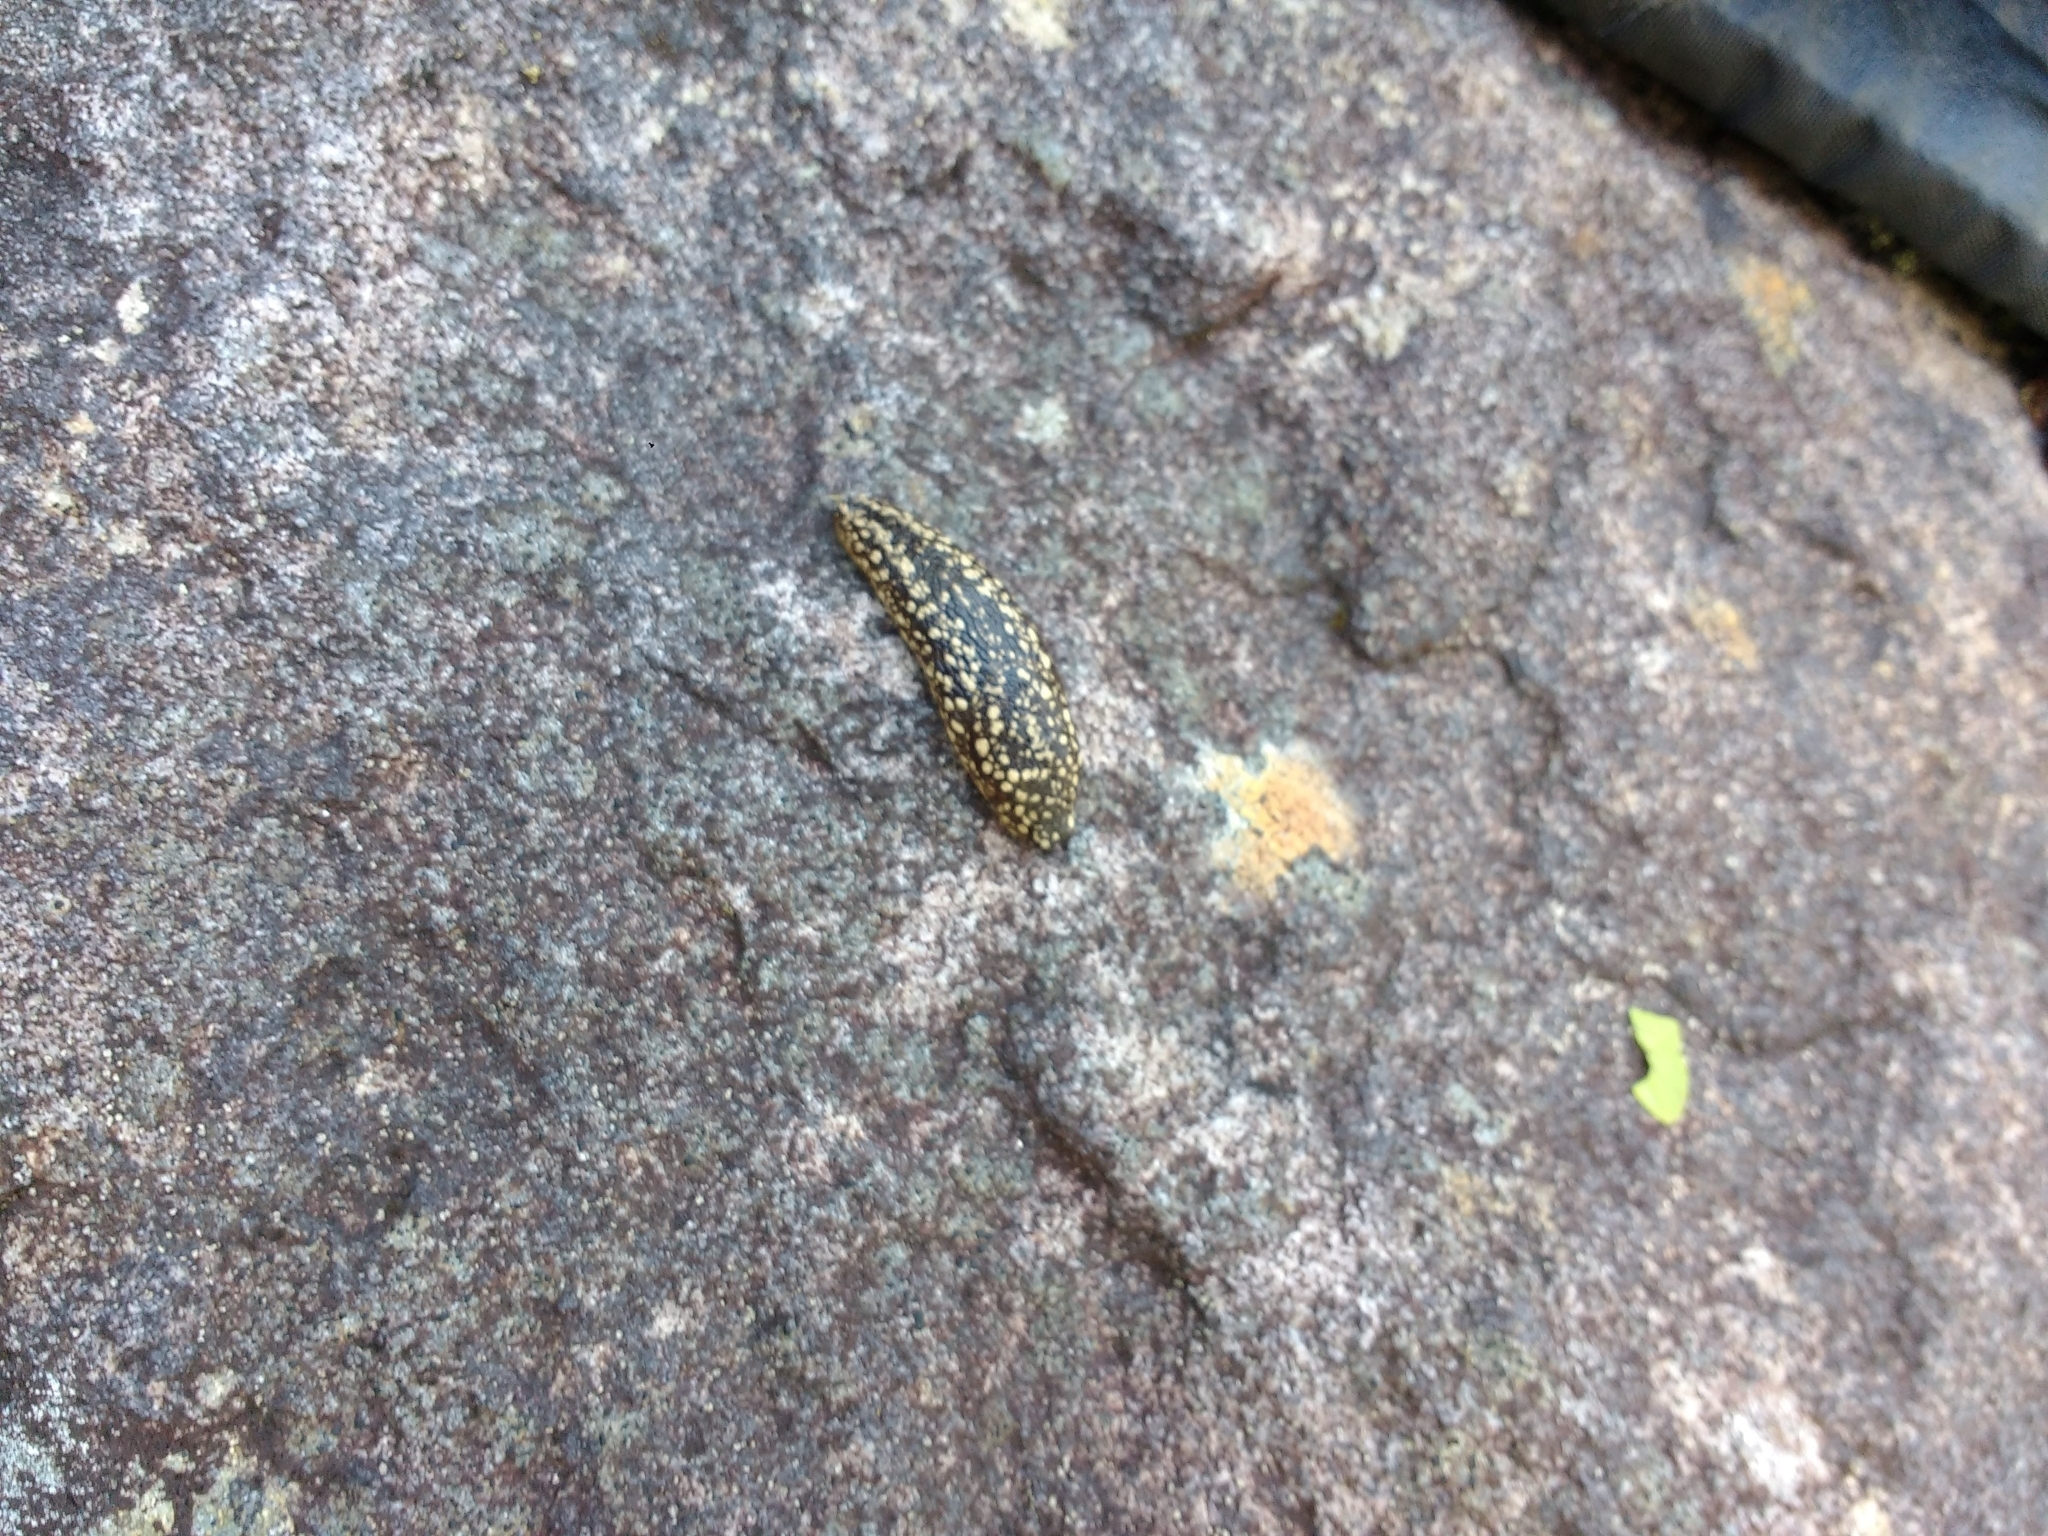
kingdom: Animalia
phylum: Mollusca
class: Gastropoda
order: Stylommatophora
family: Arionidae
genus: Geomalacus
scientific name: Geomalacus maculosus
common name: Kerry slug
